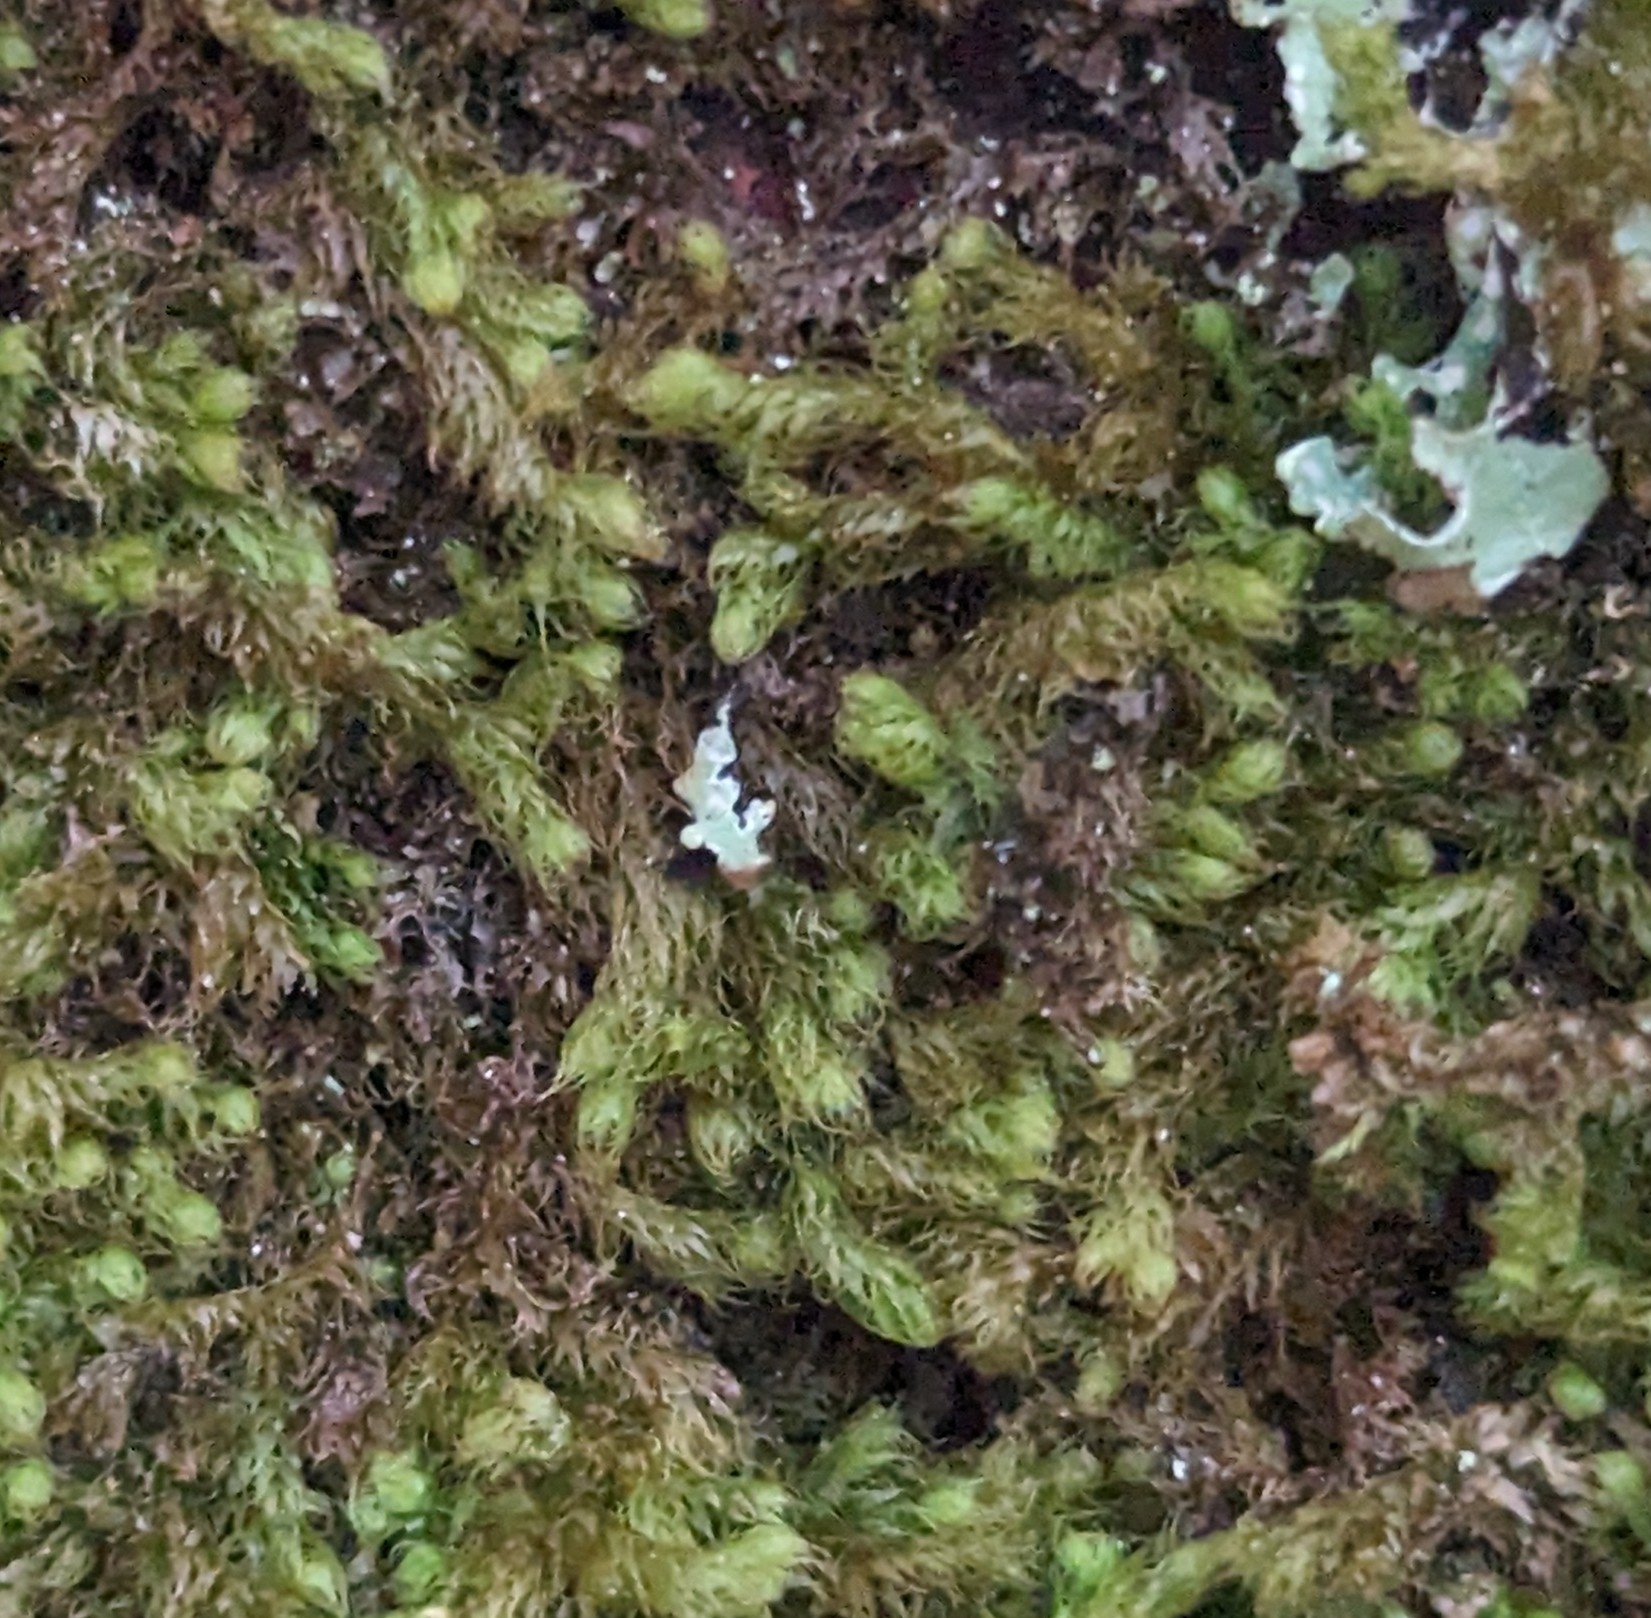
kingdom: Plantae
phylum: Marchantiophyta
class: Jungermanniopsida
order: Ptilidiales
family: Ptilidiaceae
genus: Ptilidium
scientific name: Ptilidium californicum
